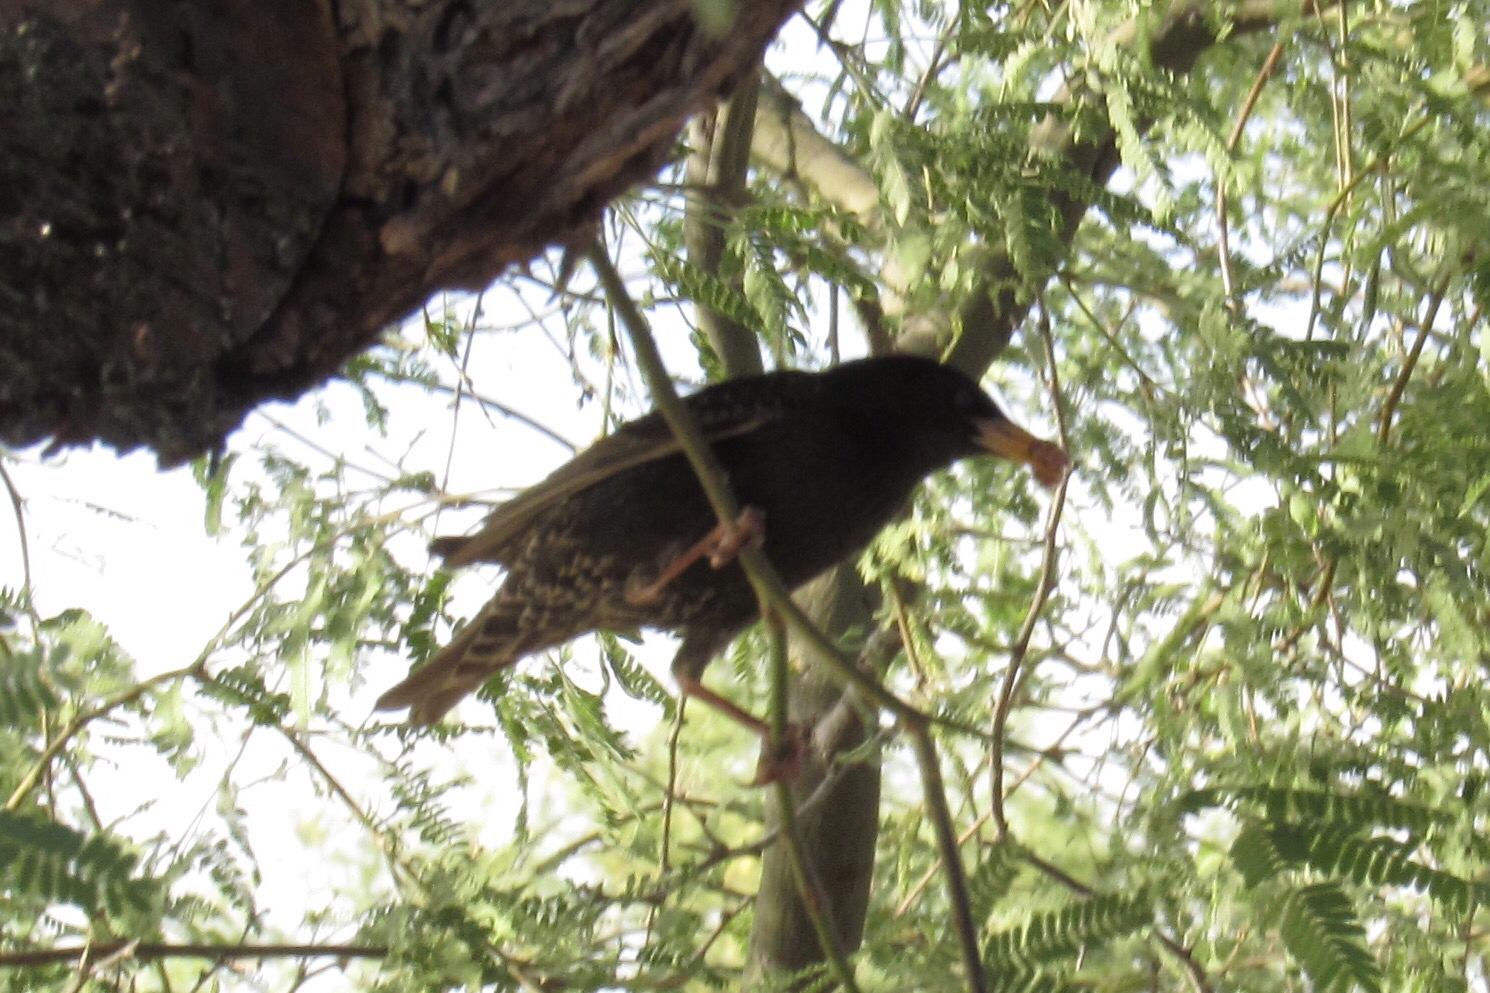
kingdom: Animalia
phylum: Chordata
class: Aves
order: Passeriformes
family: Sturnidae
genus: Sturnus
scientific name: Sturnus vulgaris
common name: Common starling
